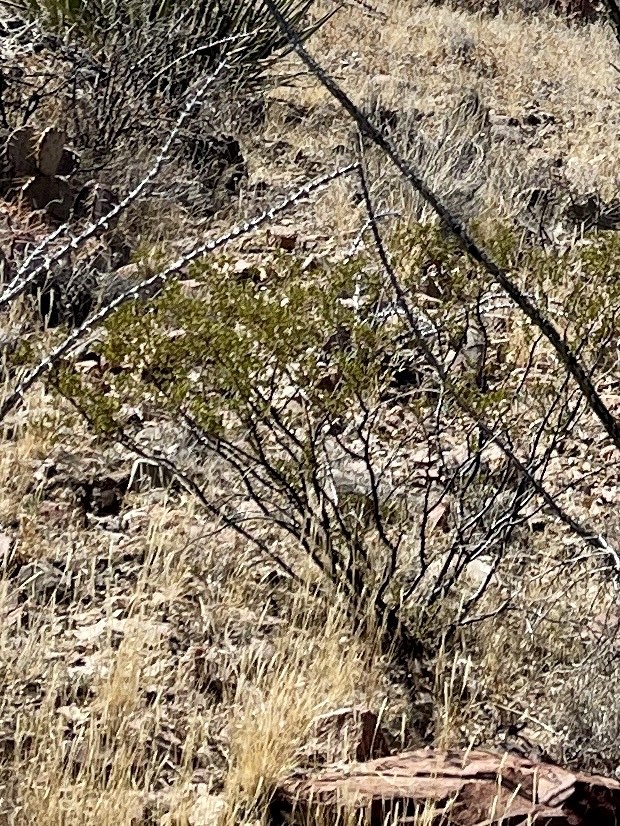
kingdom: Plantae
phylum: Tracheophyta
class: Magnoliopsida
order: Zygophyllales
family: Zygophyllaceae
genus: Larrea
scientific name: Larrea tridentata
